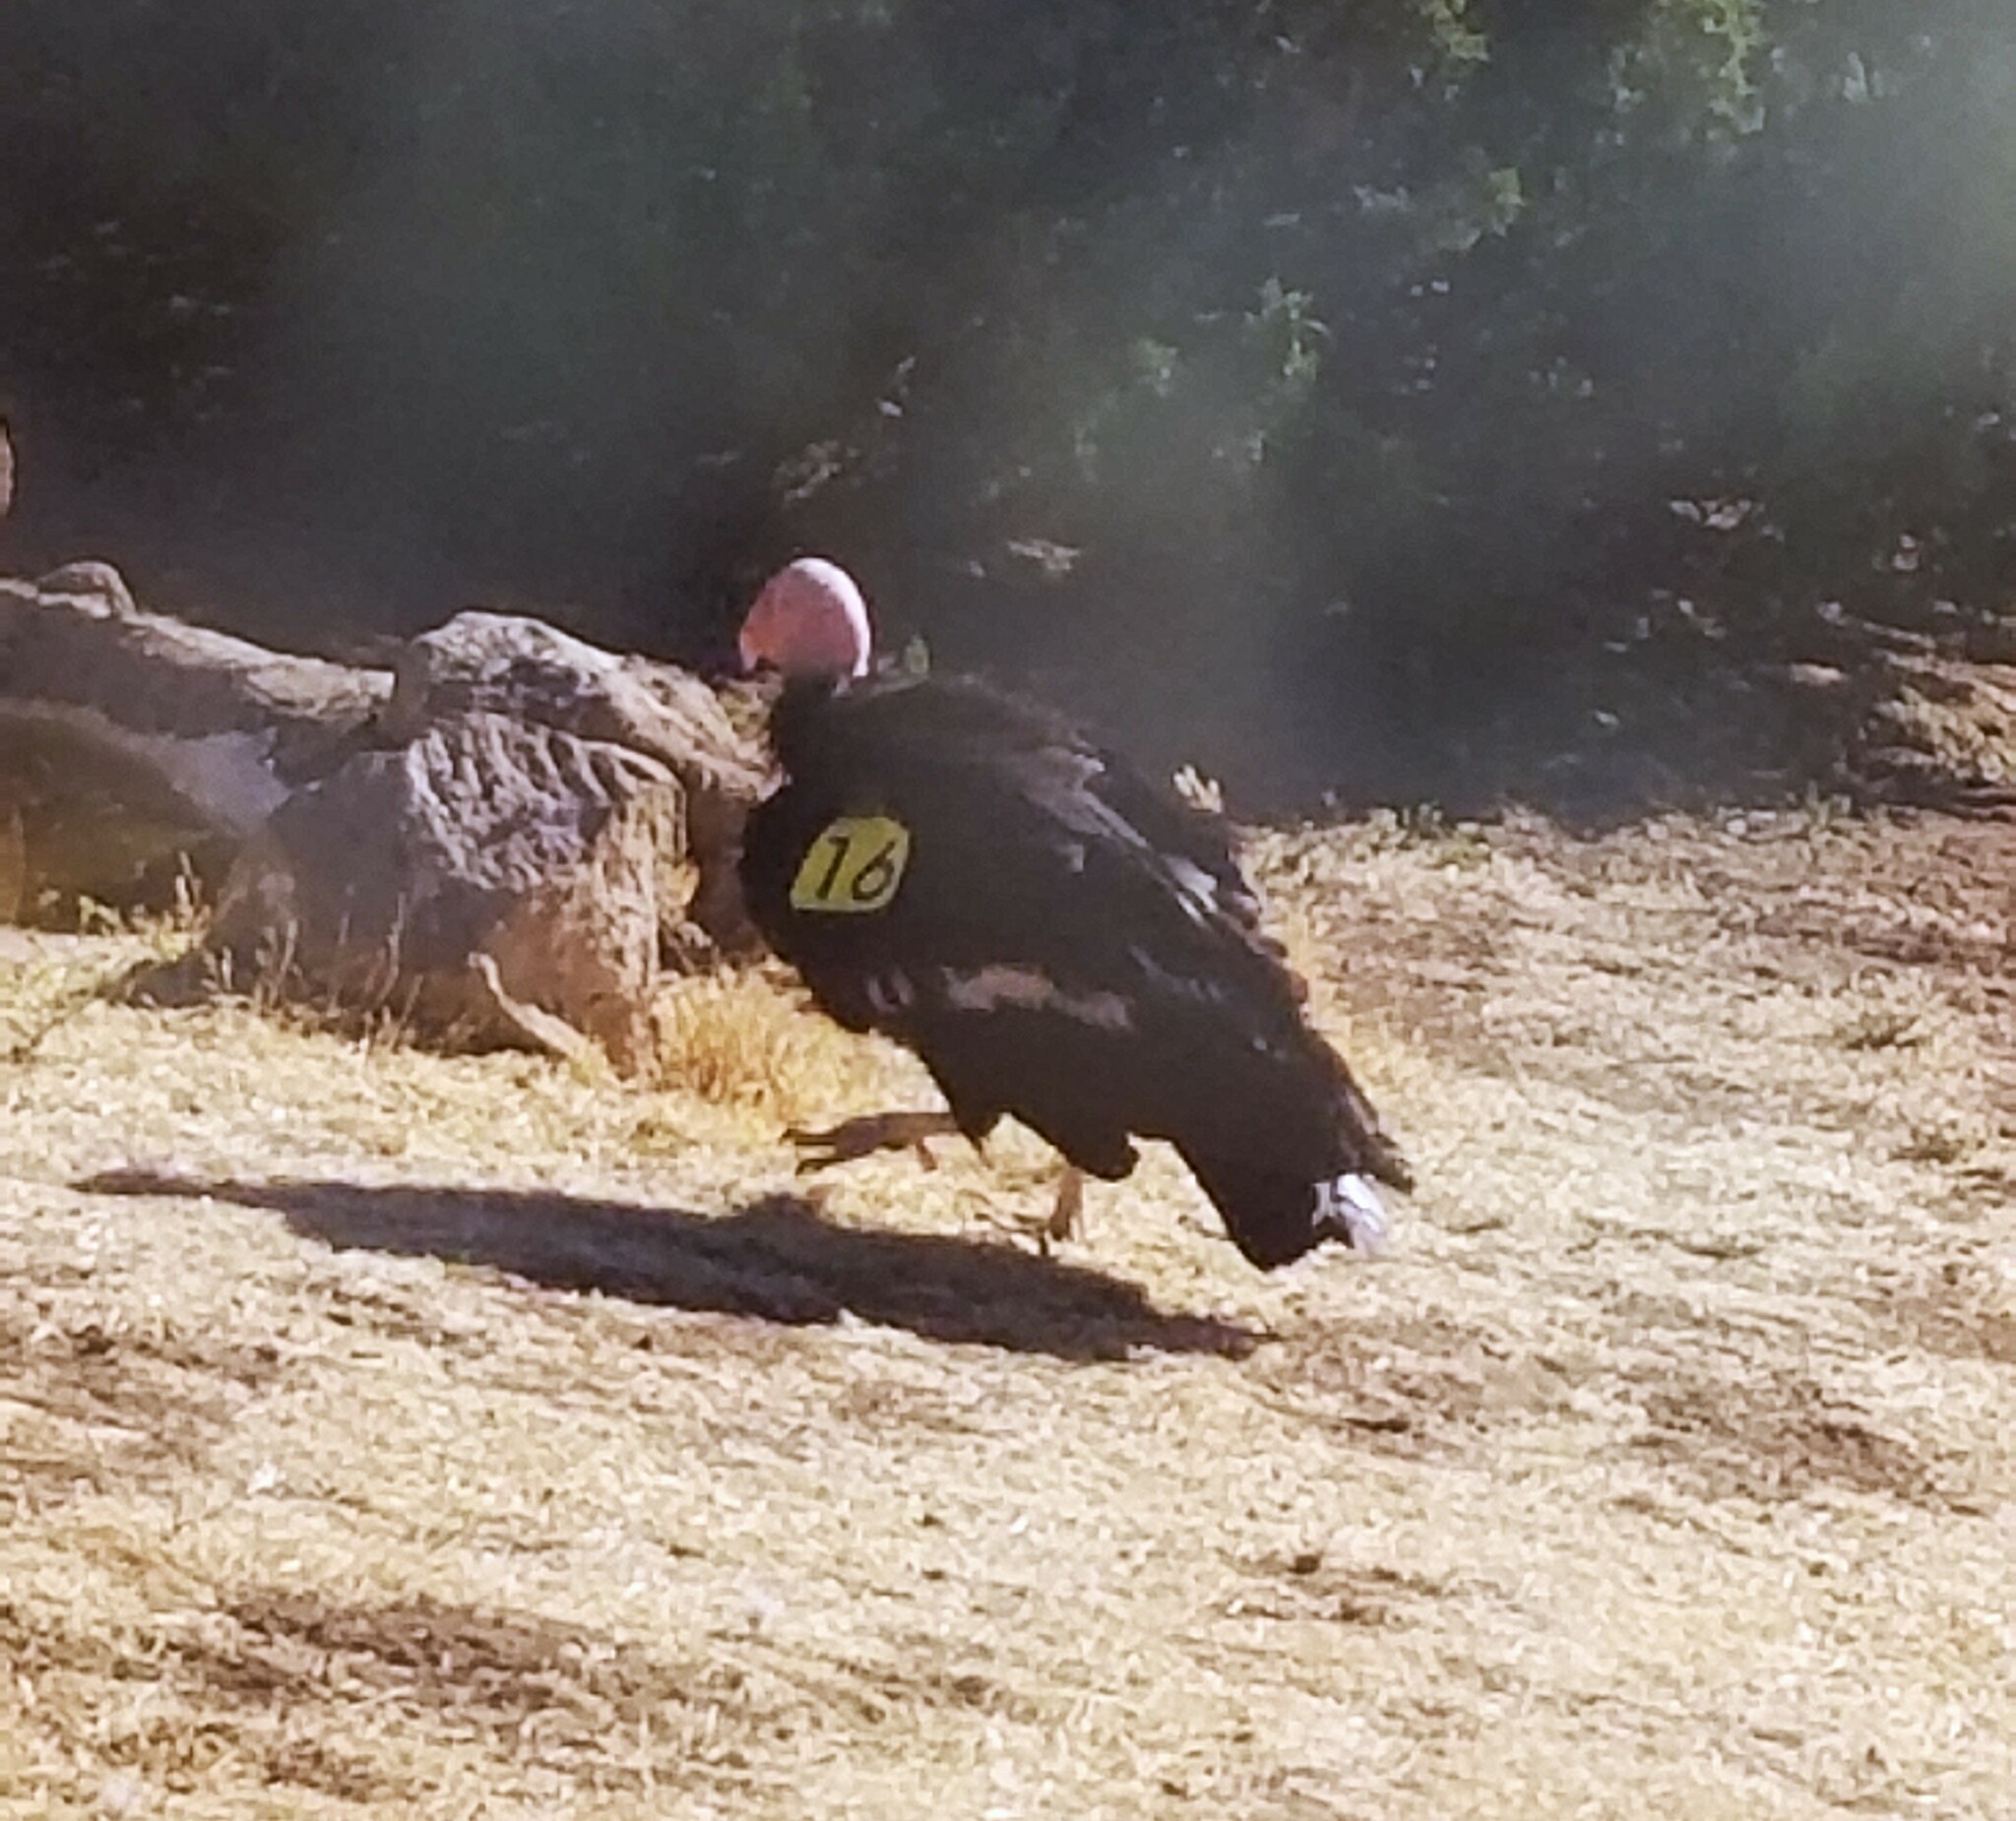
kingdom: Animalia
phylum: Chordata
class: Aves
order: Accipitriformes
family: Cathartidae
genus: Gymnogyps
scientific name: Gymnogyps californianus
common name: California condor
